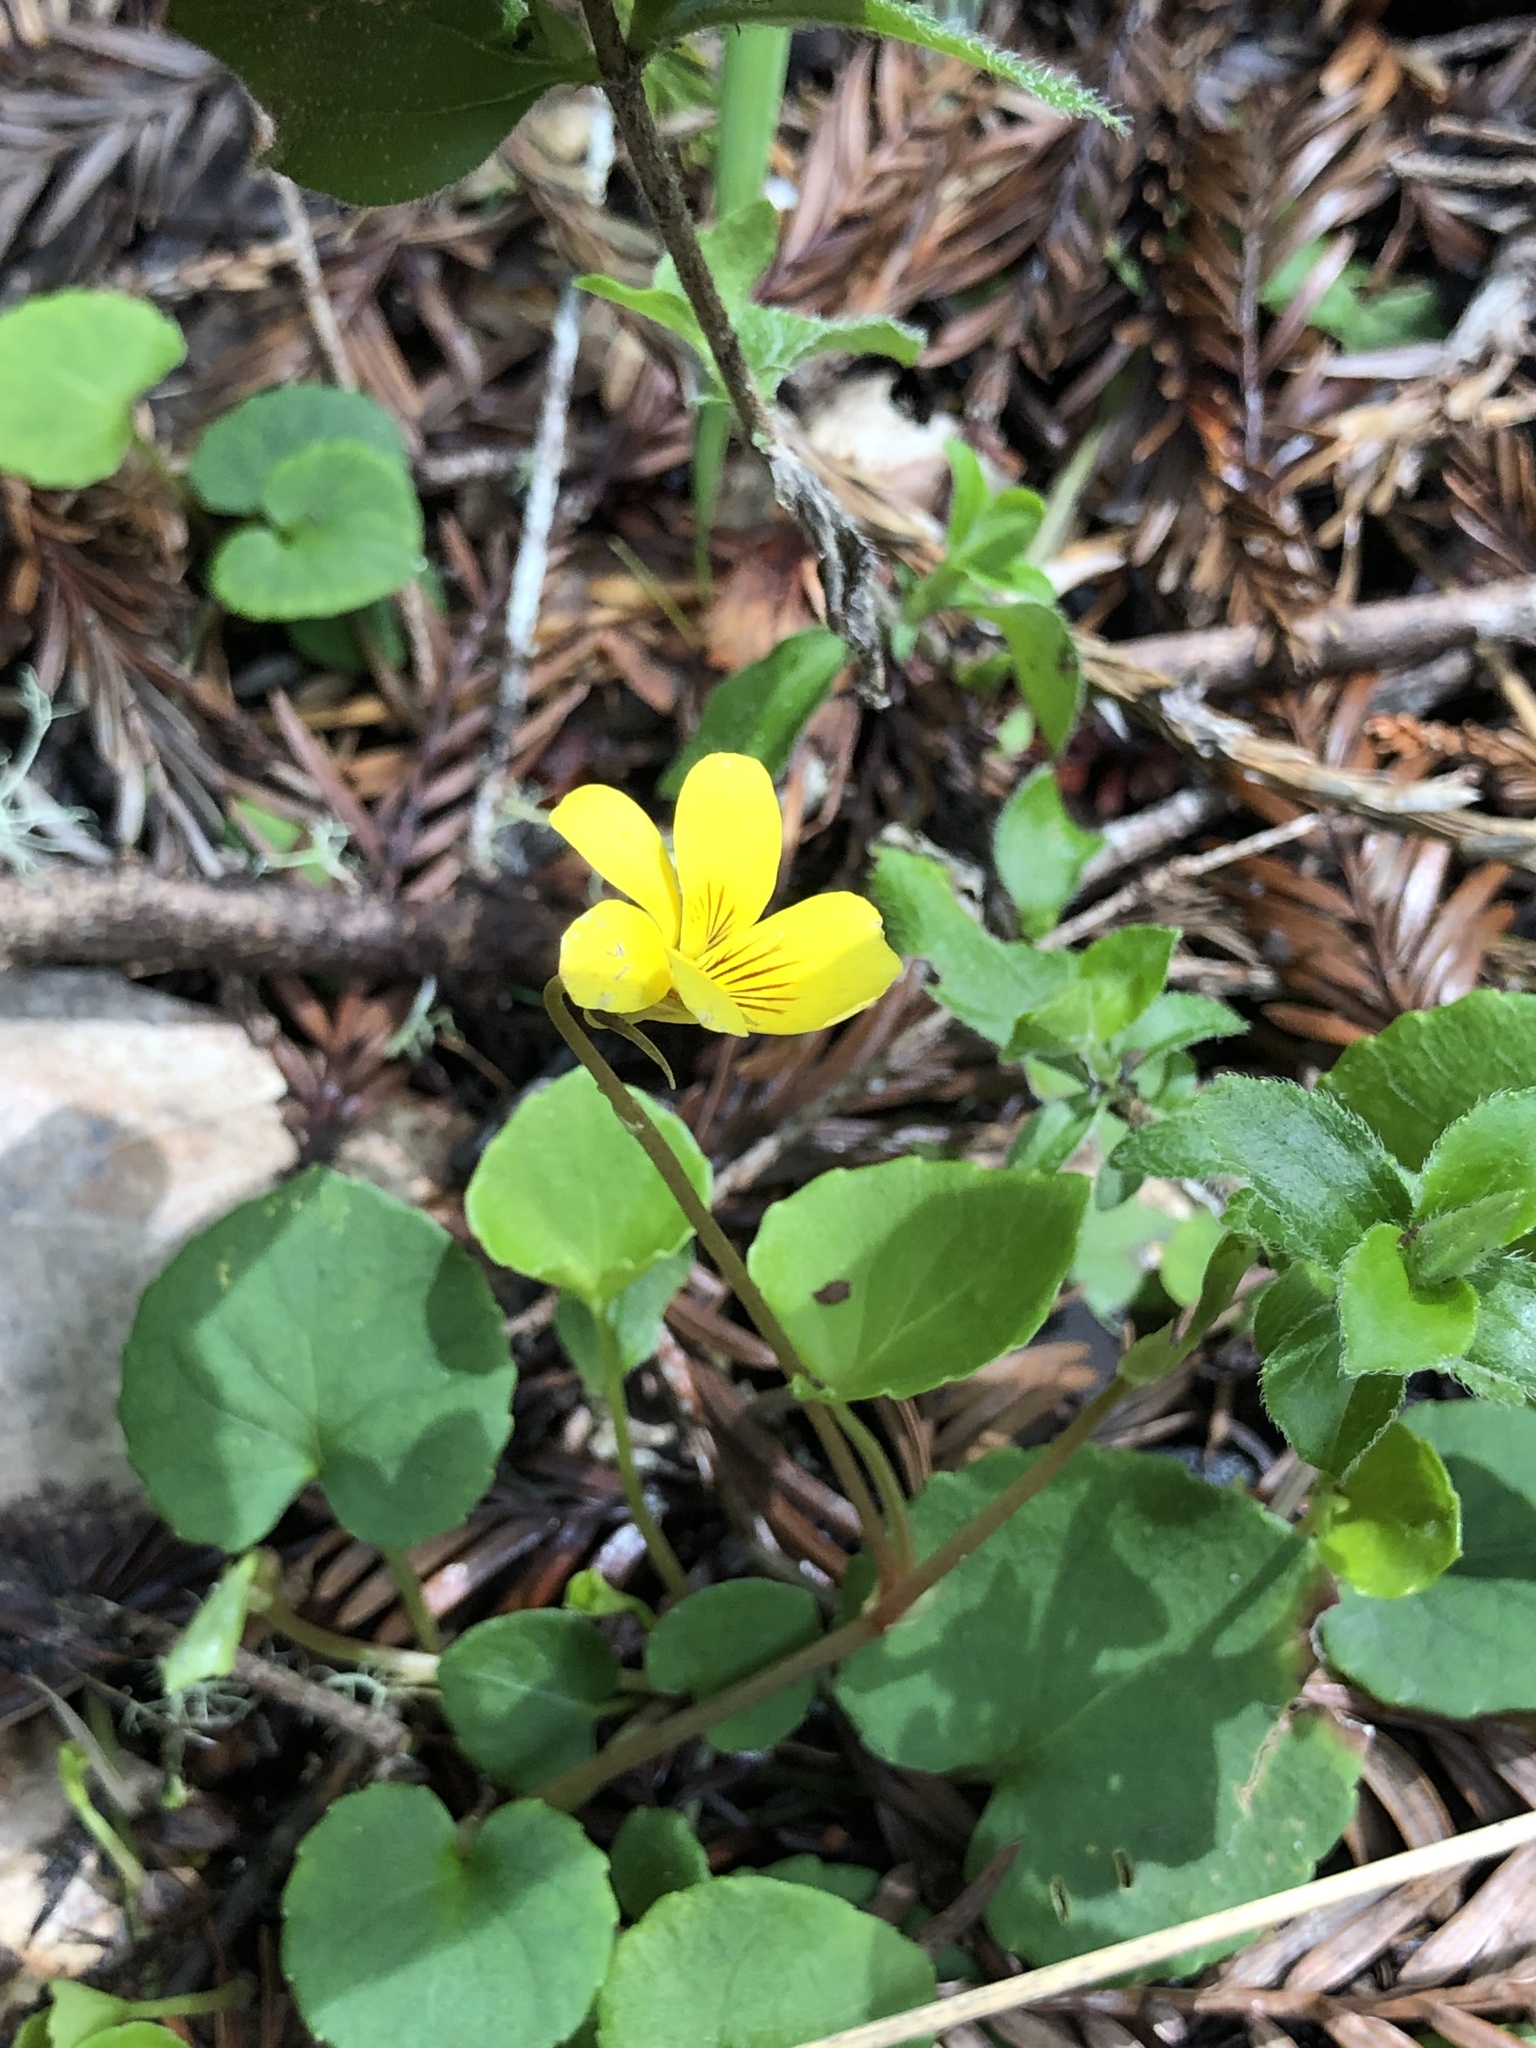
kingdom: Plantae
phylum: Tracheophyta
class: Magnoliopsida
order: Malpighiales
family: Violaceae
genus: Viola
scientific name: Viola sempervirens
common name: Evergreen violet
